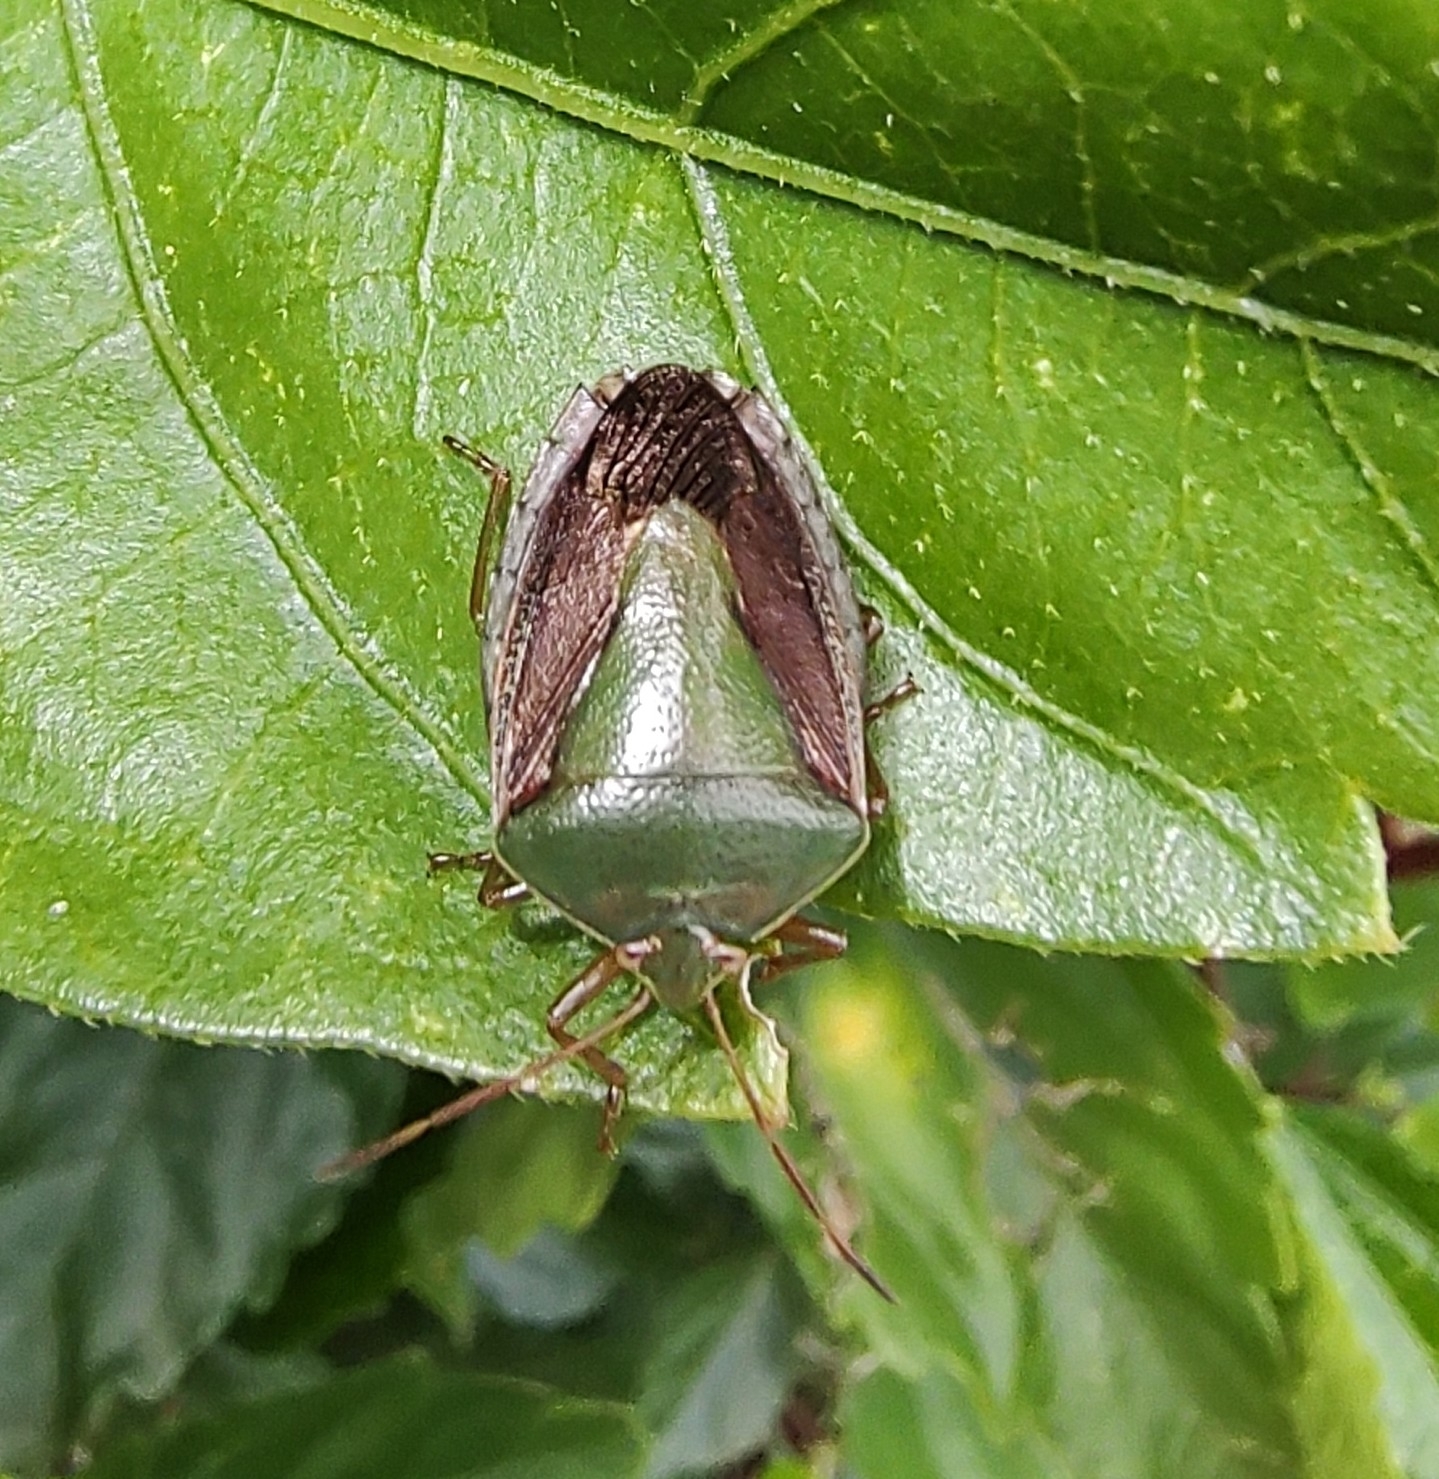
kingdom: Animalia
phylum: Arthropoda
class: Insecta
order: Hemiptera
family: Pentatomidae
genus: Edessa
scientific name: Edessa meditabunda
